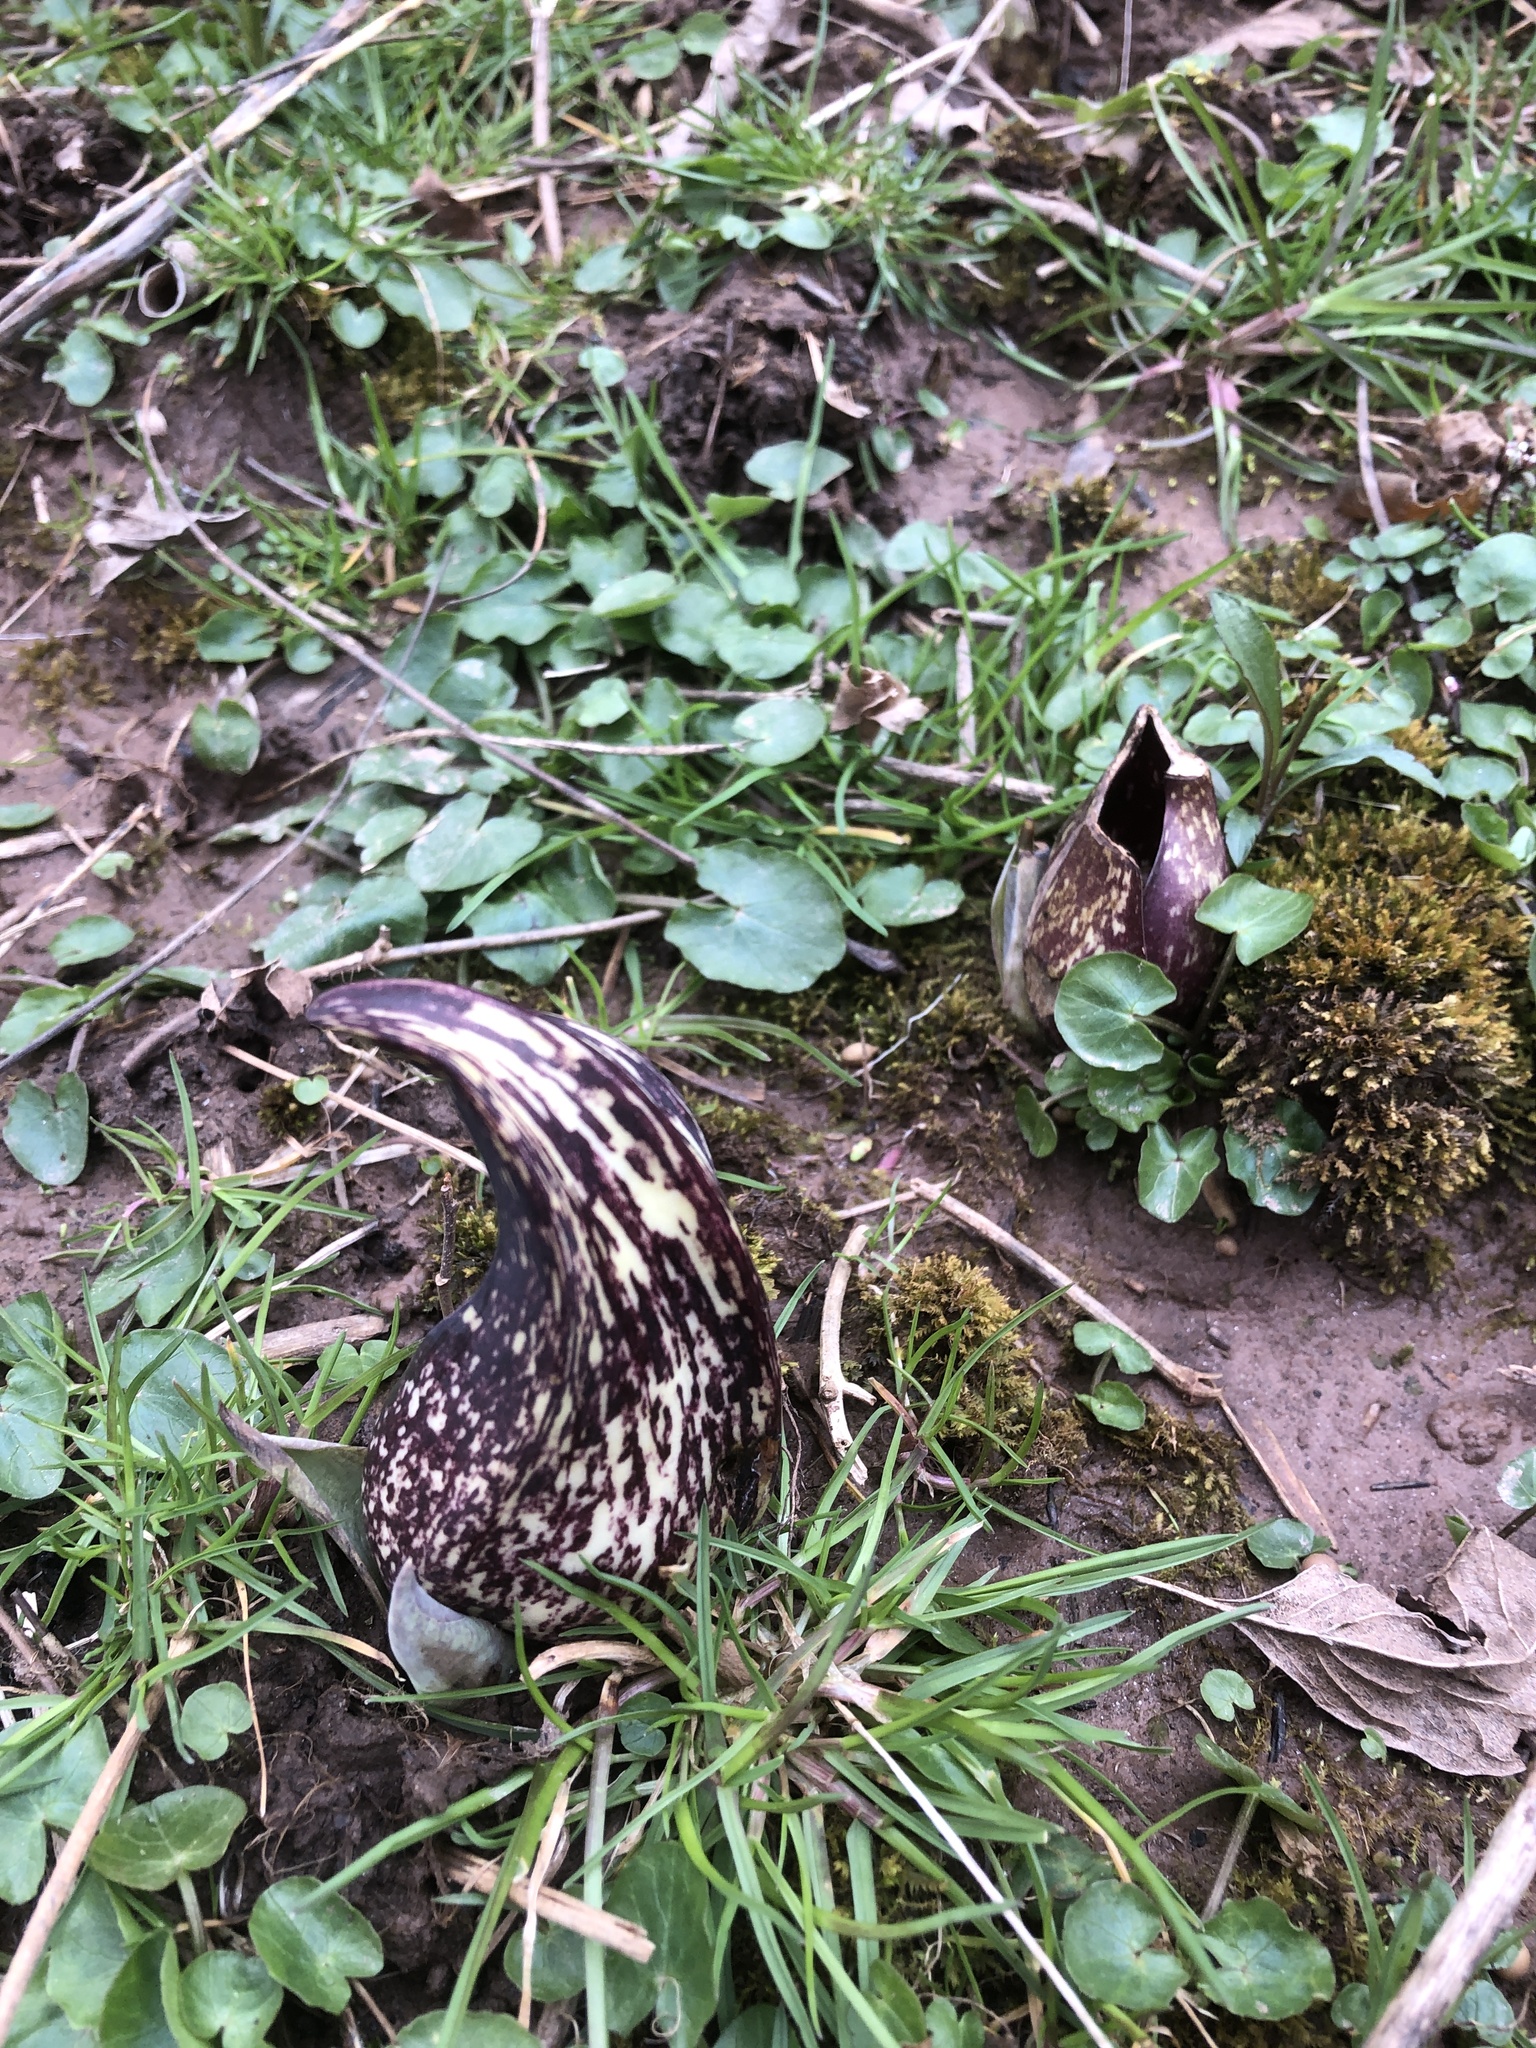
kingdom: Plantae
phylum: Tracheophyta
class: Liliopsida
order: Alismatales
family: Araceae
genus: Symplocarpus
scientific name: Symplocarpus foetidus
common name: Eastern skunk cabbage
